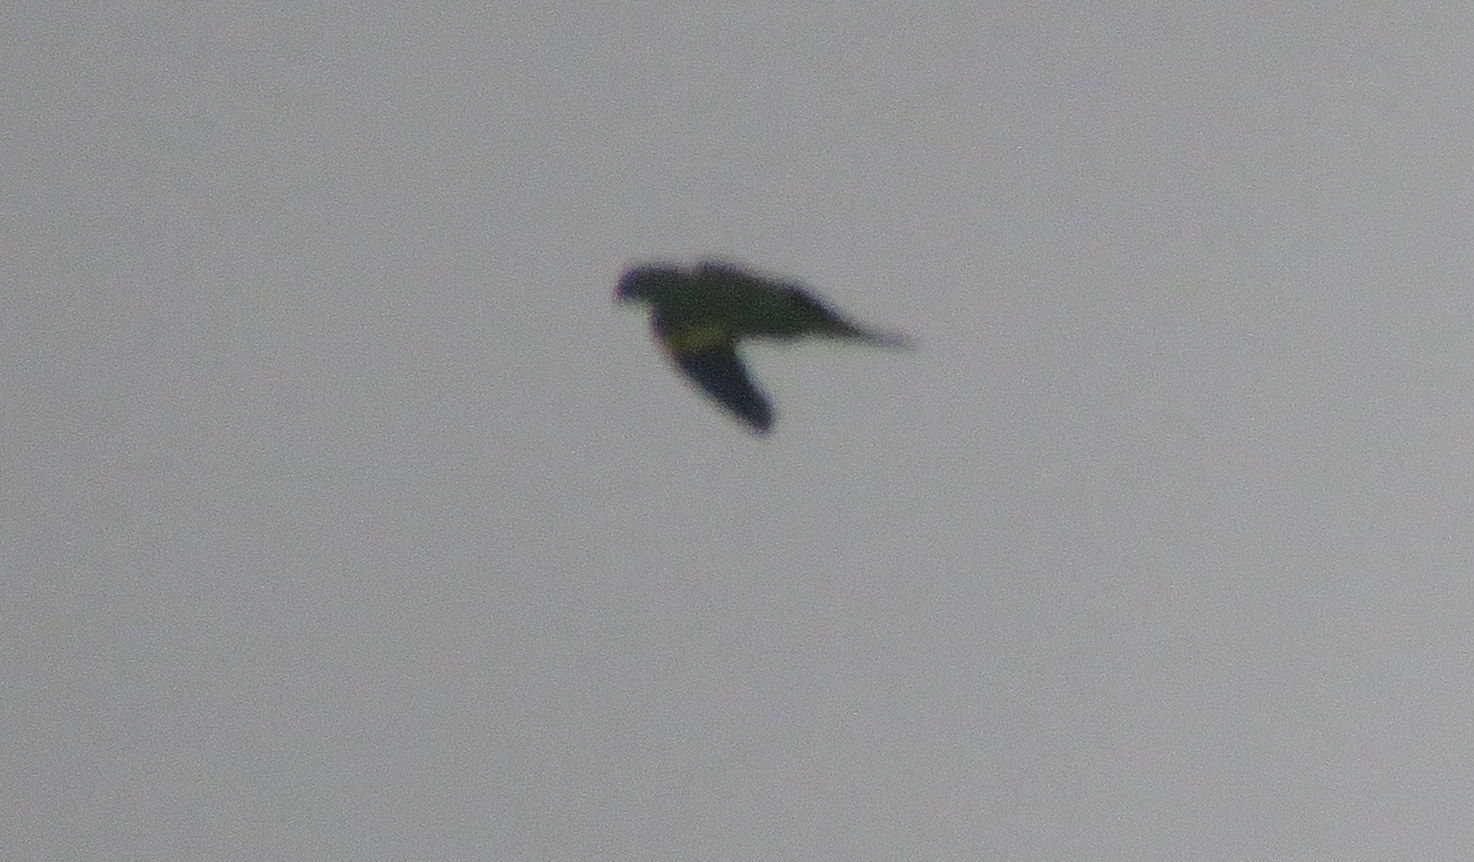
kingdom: Animalia
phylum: Chordata
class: Aves
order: Psittaciformes
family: Psittacidae
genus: Brotogeris
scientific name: Brotogeris chiriri
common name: Yellow-chevroned parakeet
